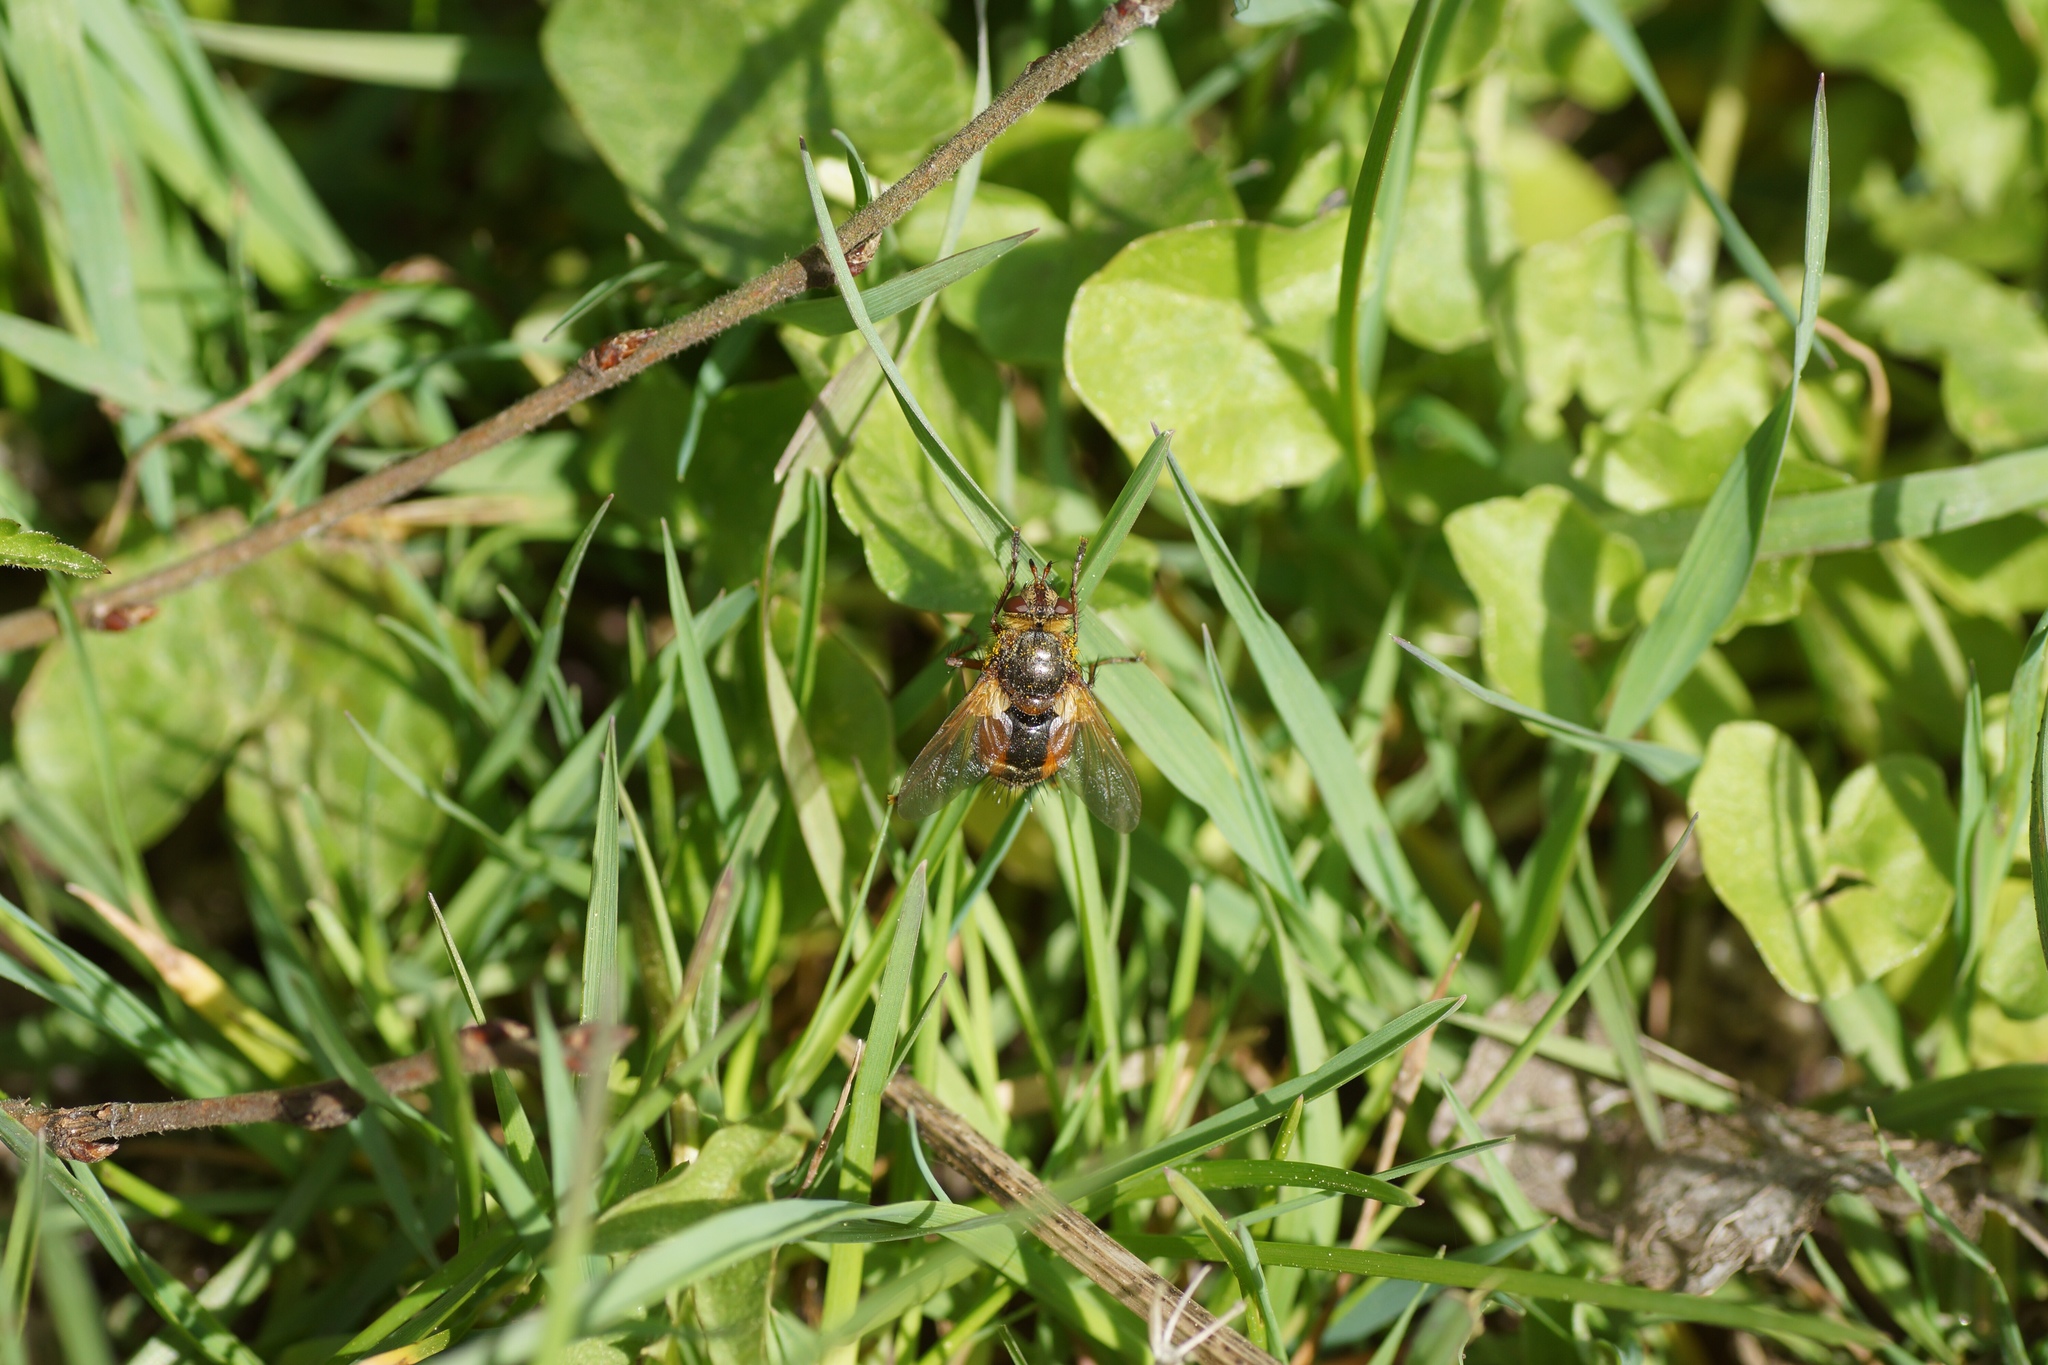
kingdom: Animalia
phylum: Arthropoda
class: Insecta
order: Diptera
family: Tachinidae
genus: Tachina
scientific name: Tachina fera
